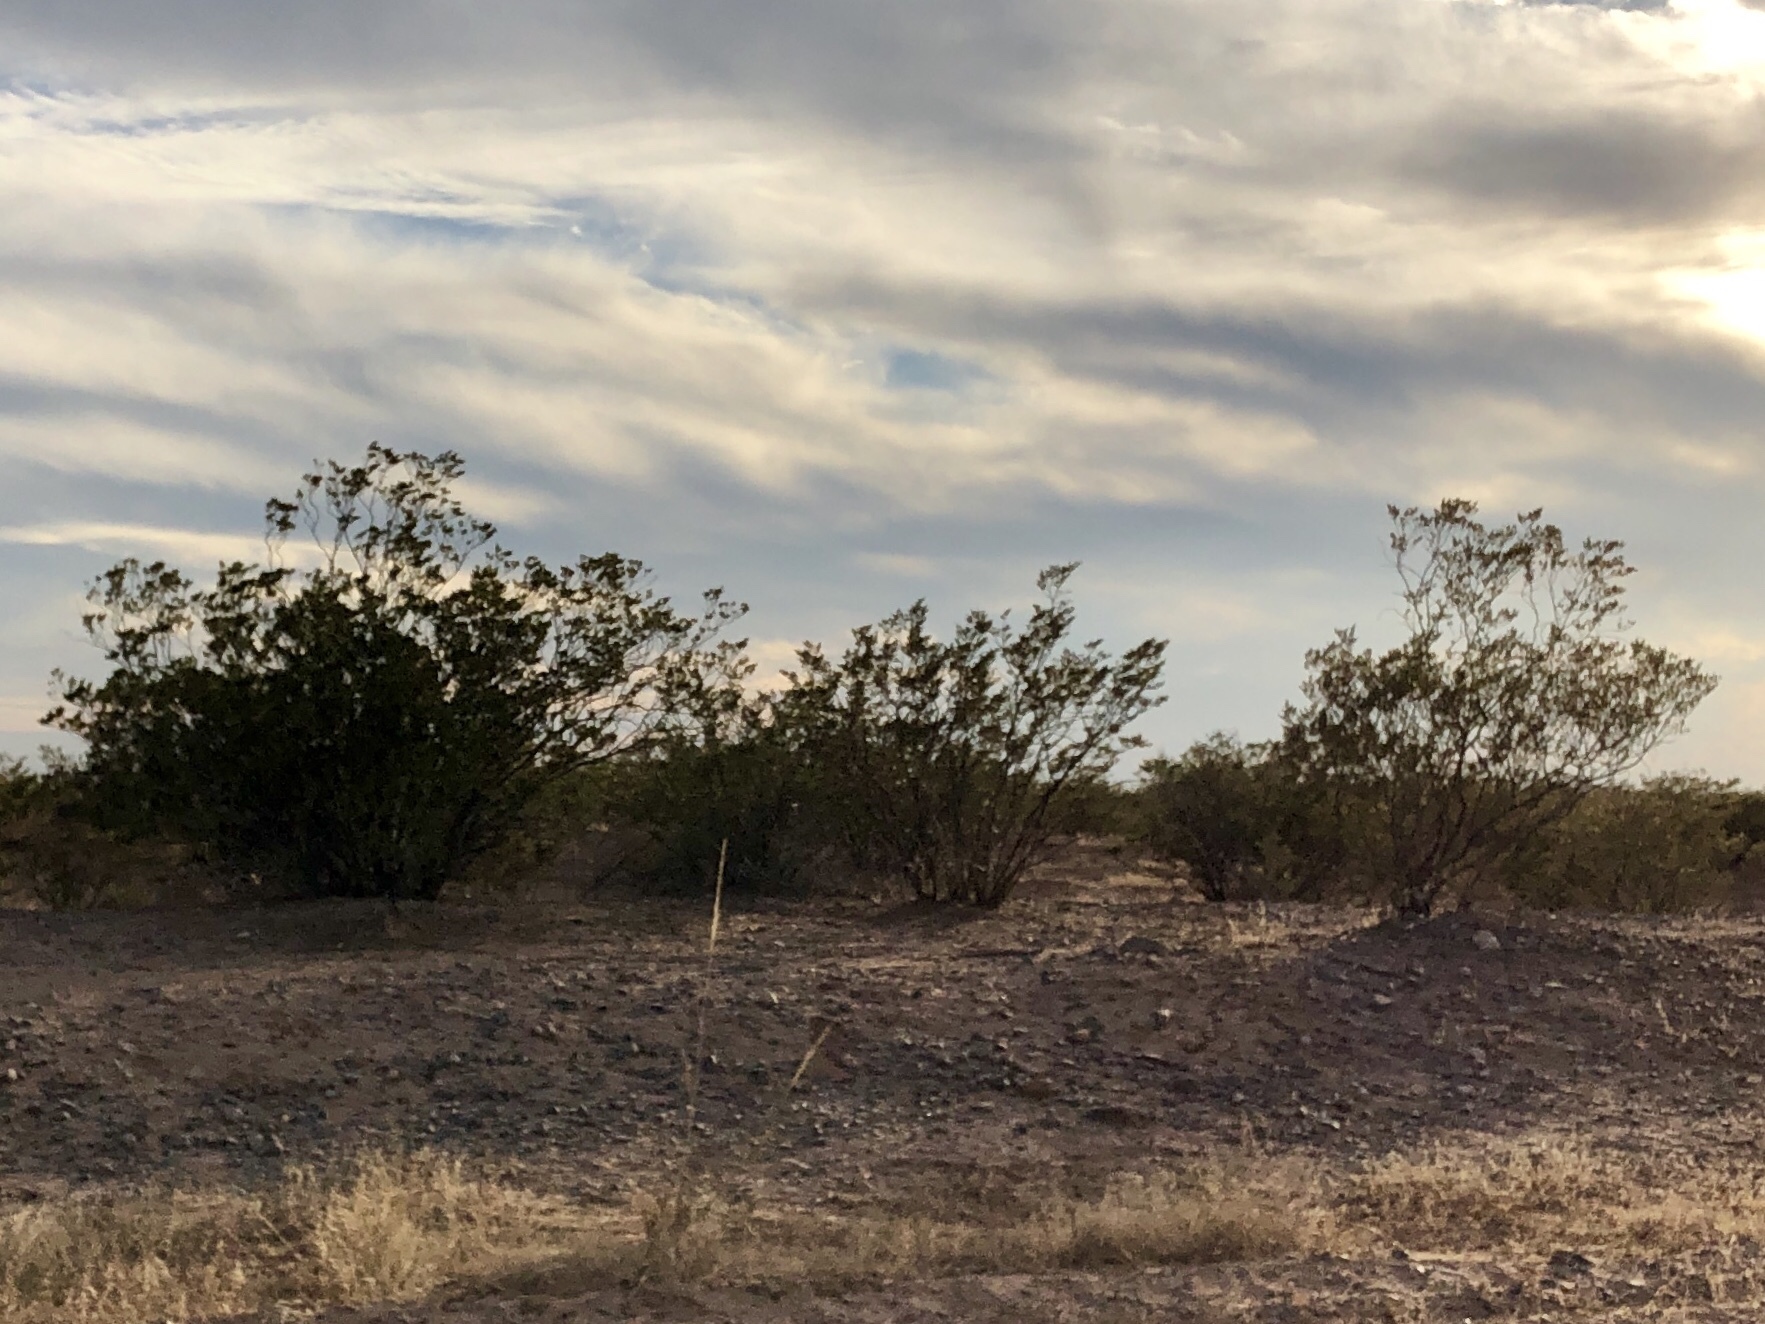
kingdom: Plantae
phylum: Tracheophyta
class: Magnoliopsida
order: Zygophyllales
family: Zygophyllaceae
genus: Larrea
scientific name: Larrea tridentata
